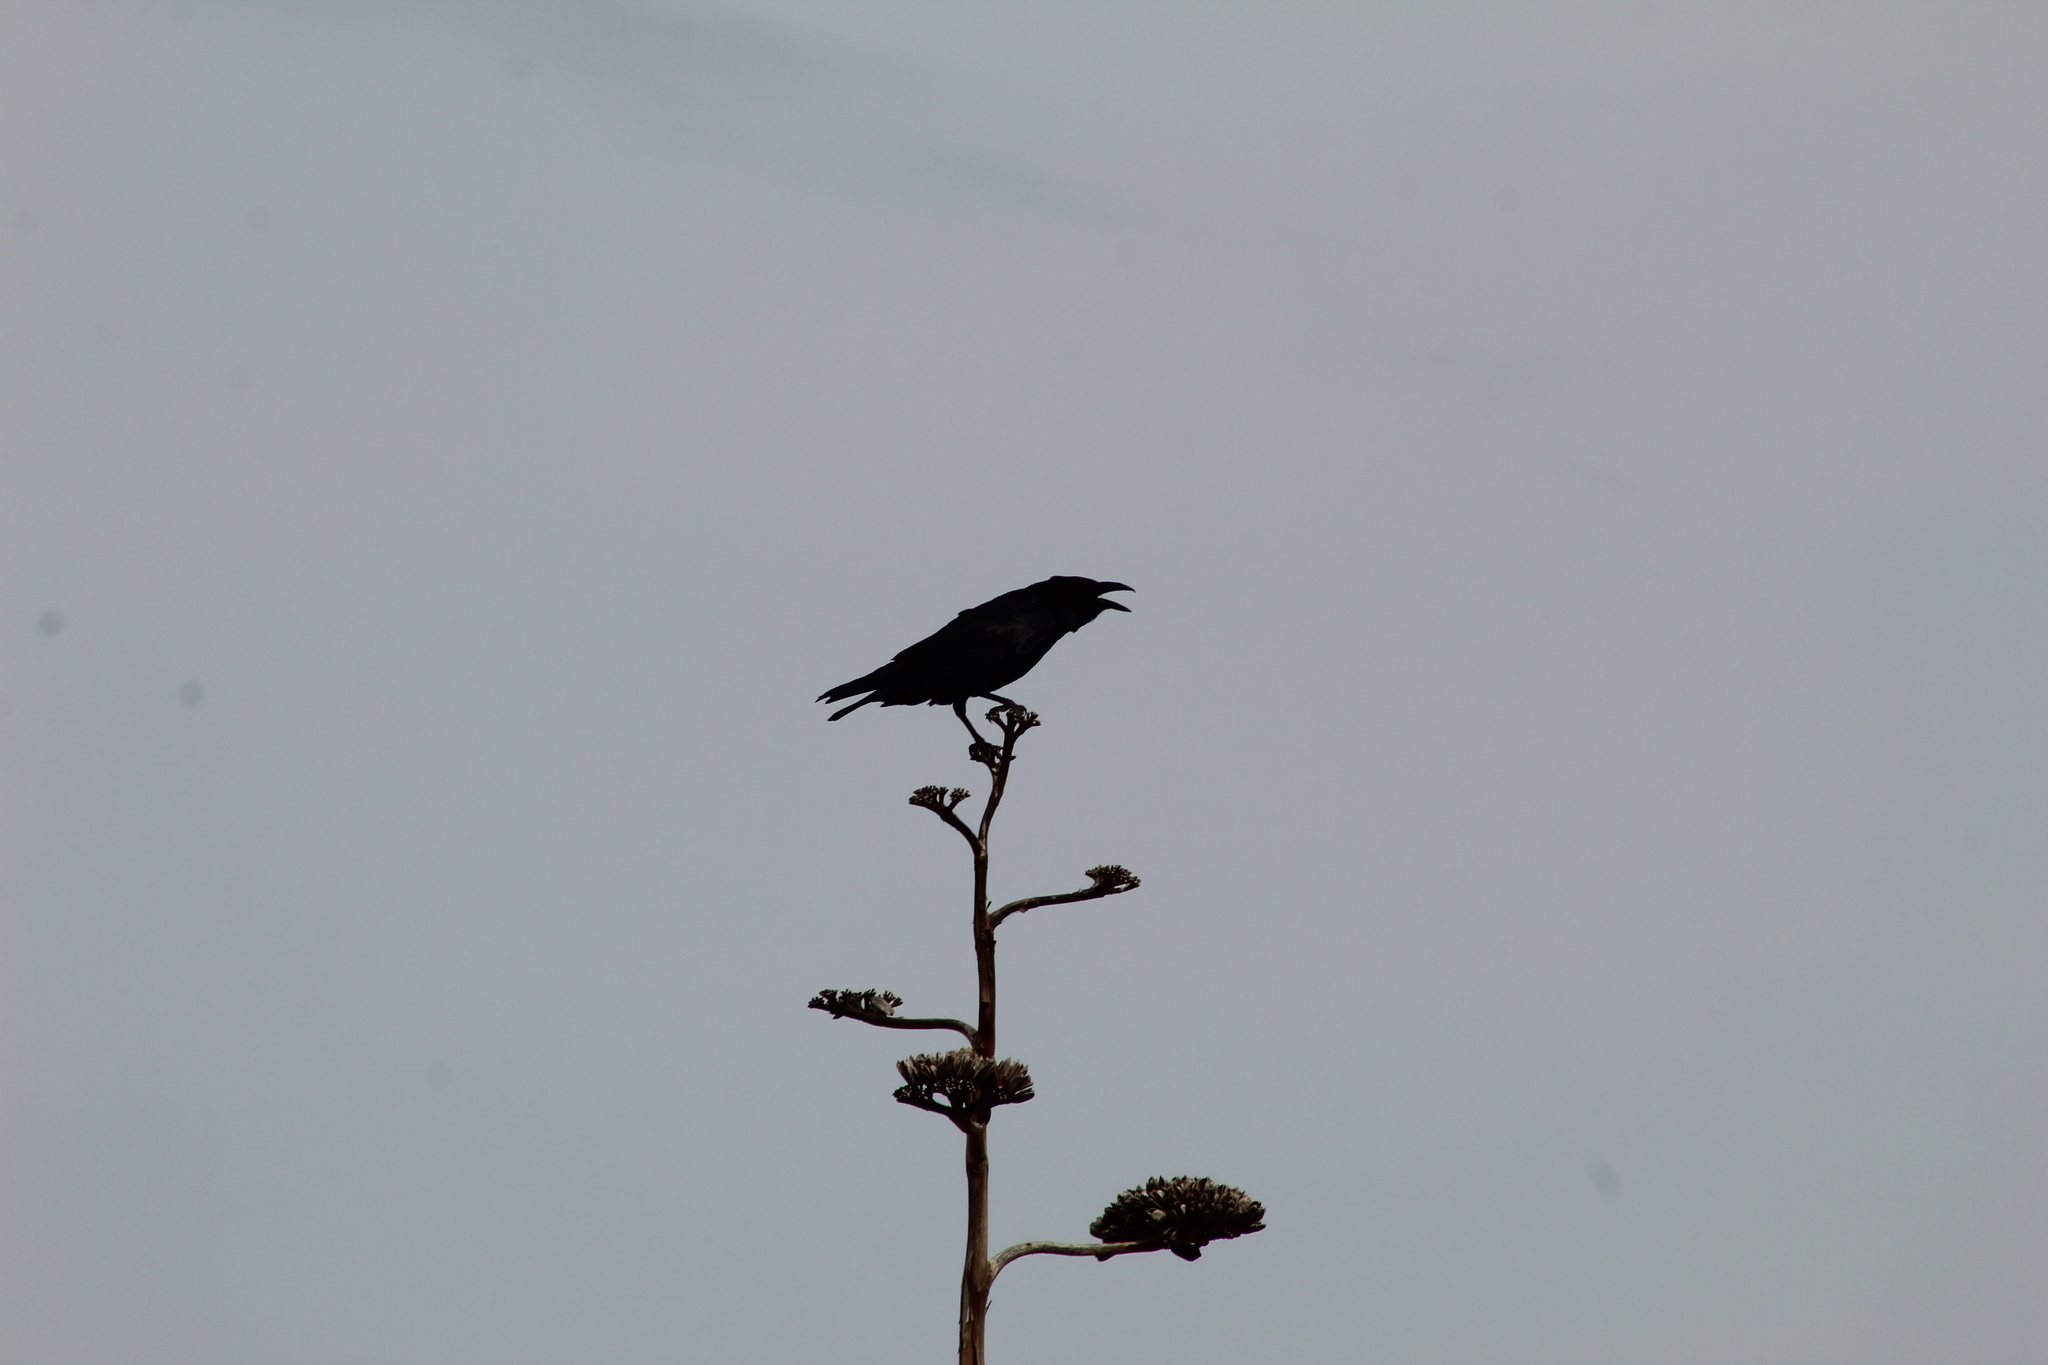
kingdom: Animalia
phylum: Chordata
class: Aves
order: Passeriformes
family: Corvidae
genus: Corvus
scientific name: Corvus corax
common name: Common raven
